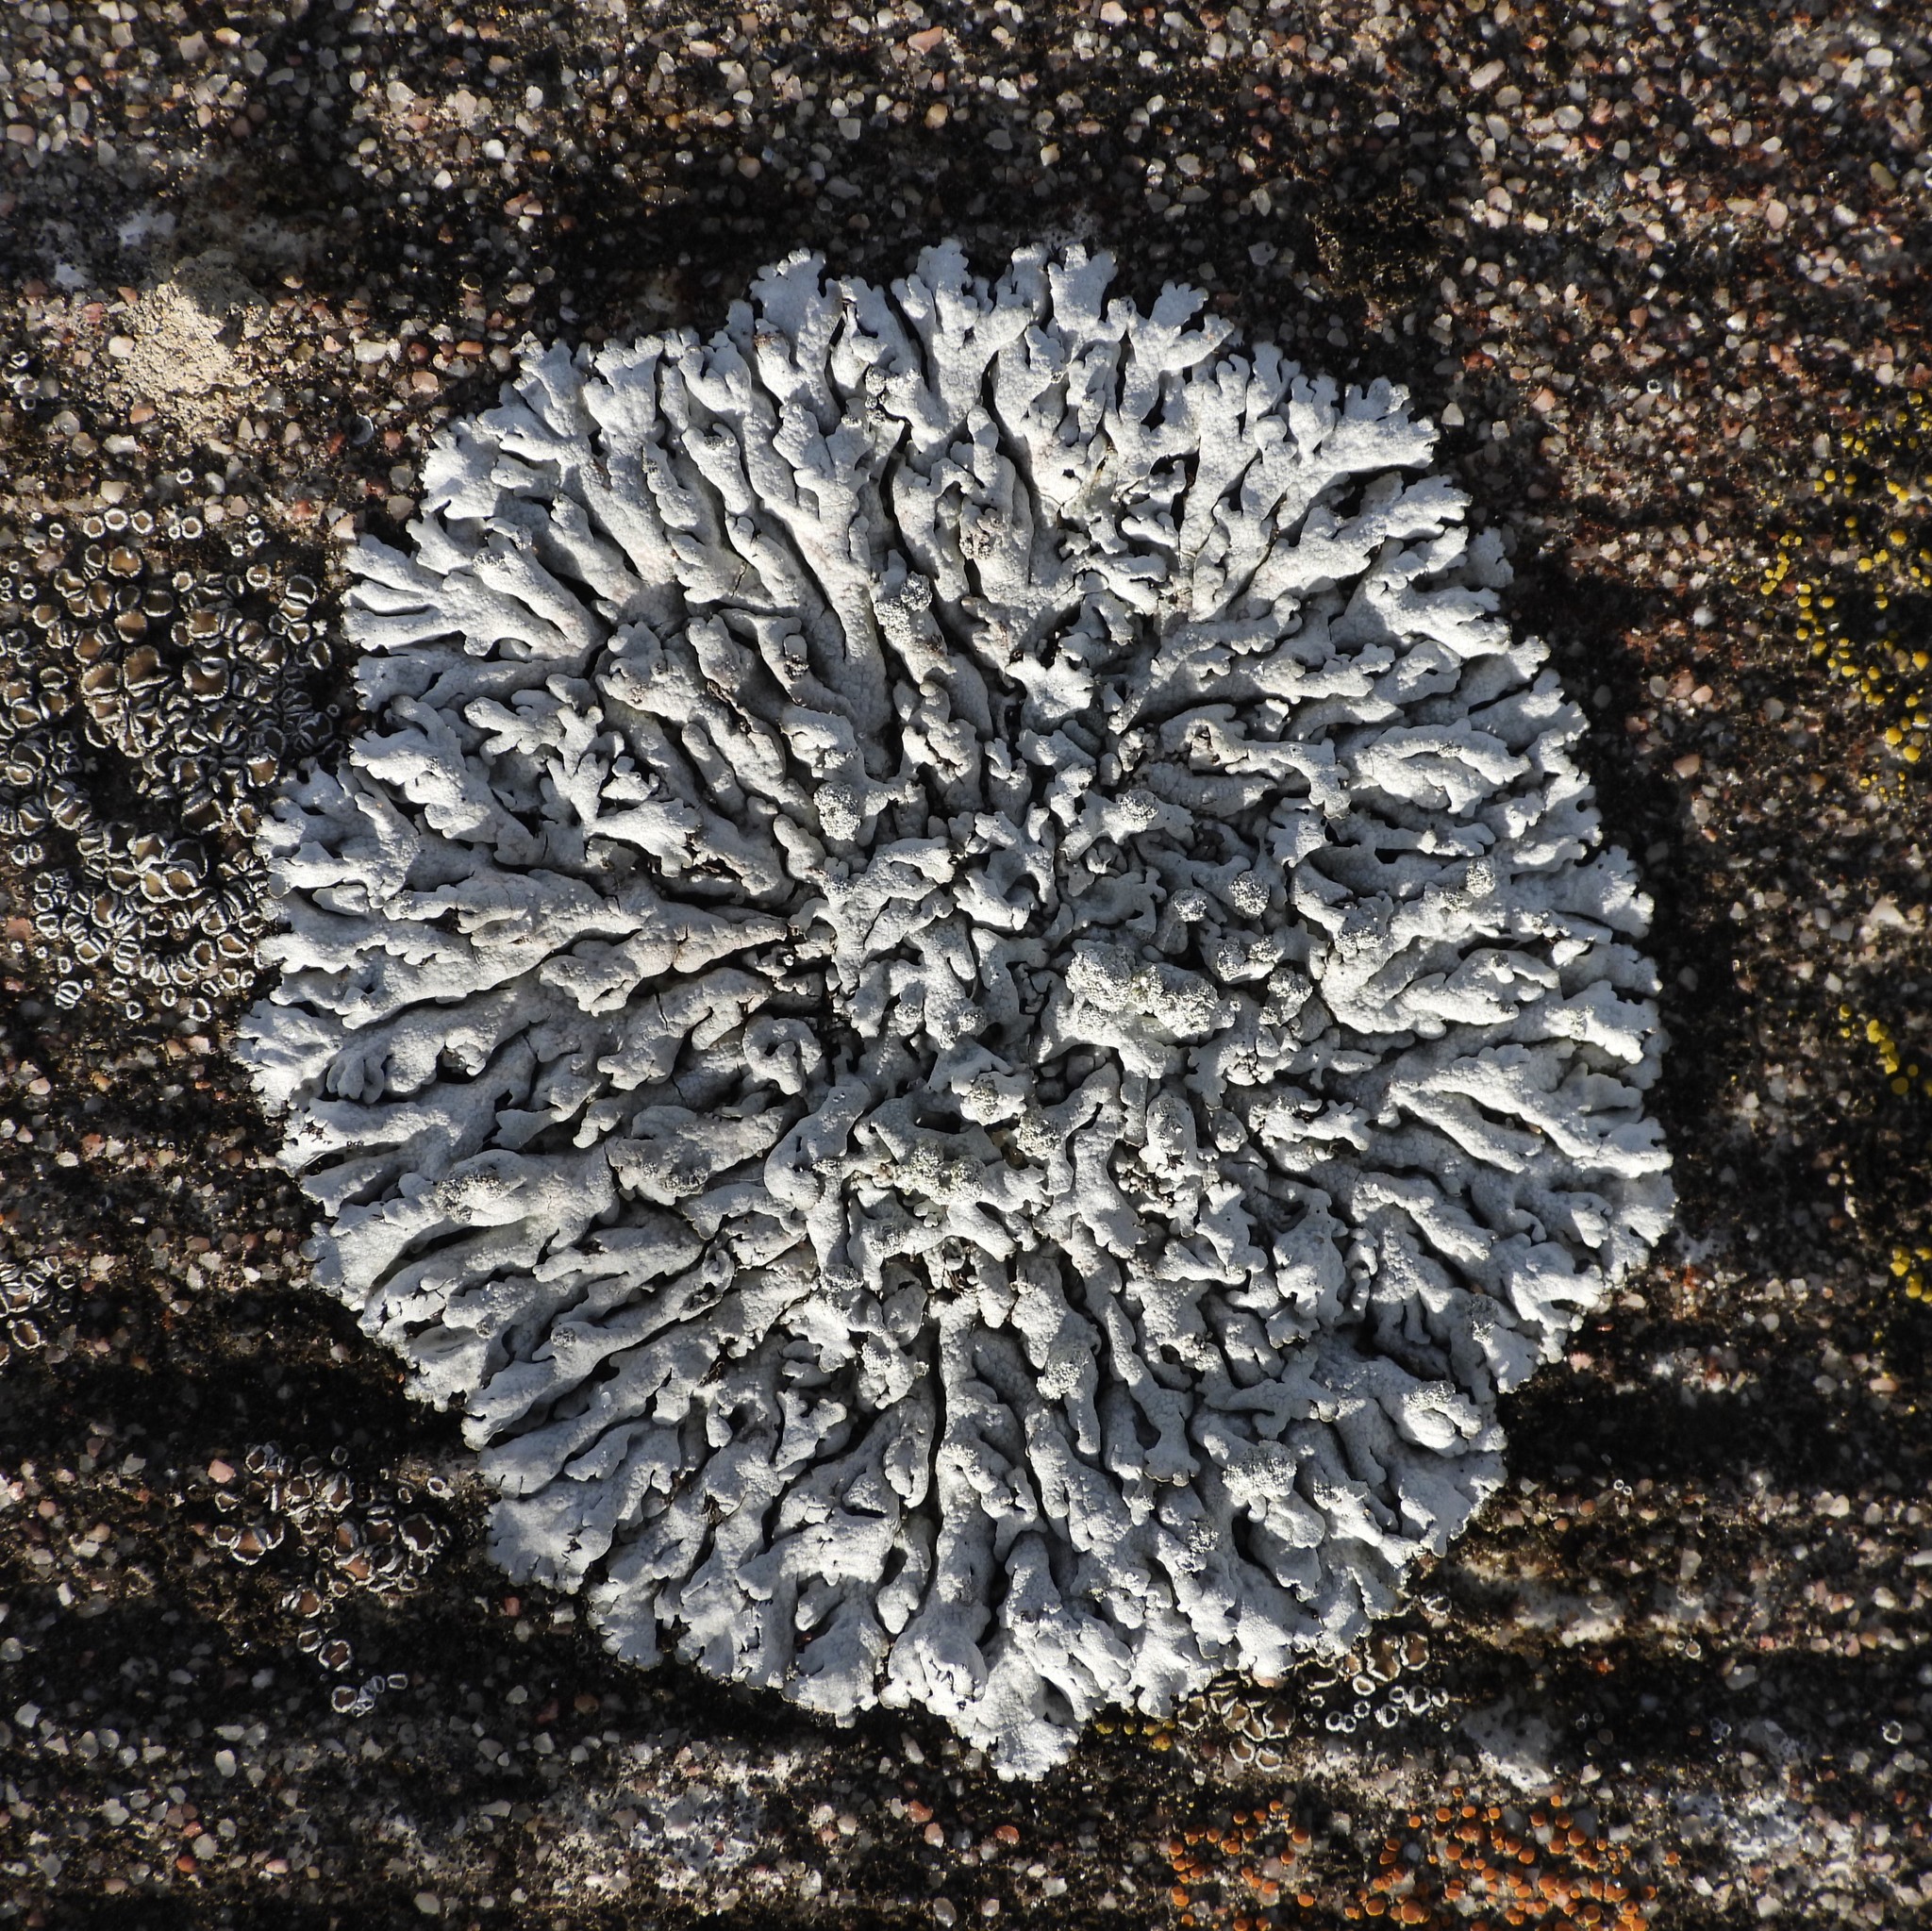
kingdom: Fungi
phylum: Ascomycota
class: Lecanoromycetes
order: Caliciales
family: Physciaceae
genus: Physcia
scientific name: Physcia caesia
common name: Blue-gray rosette lichen
